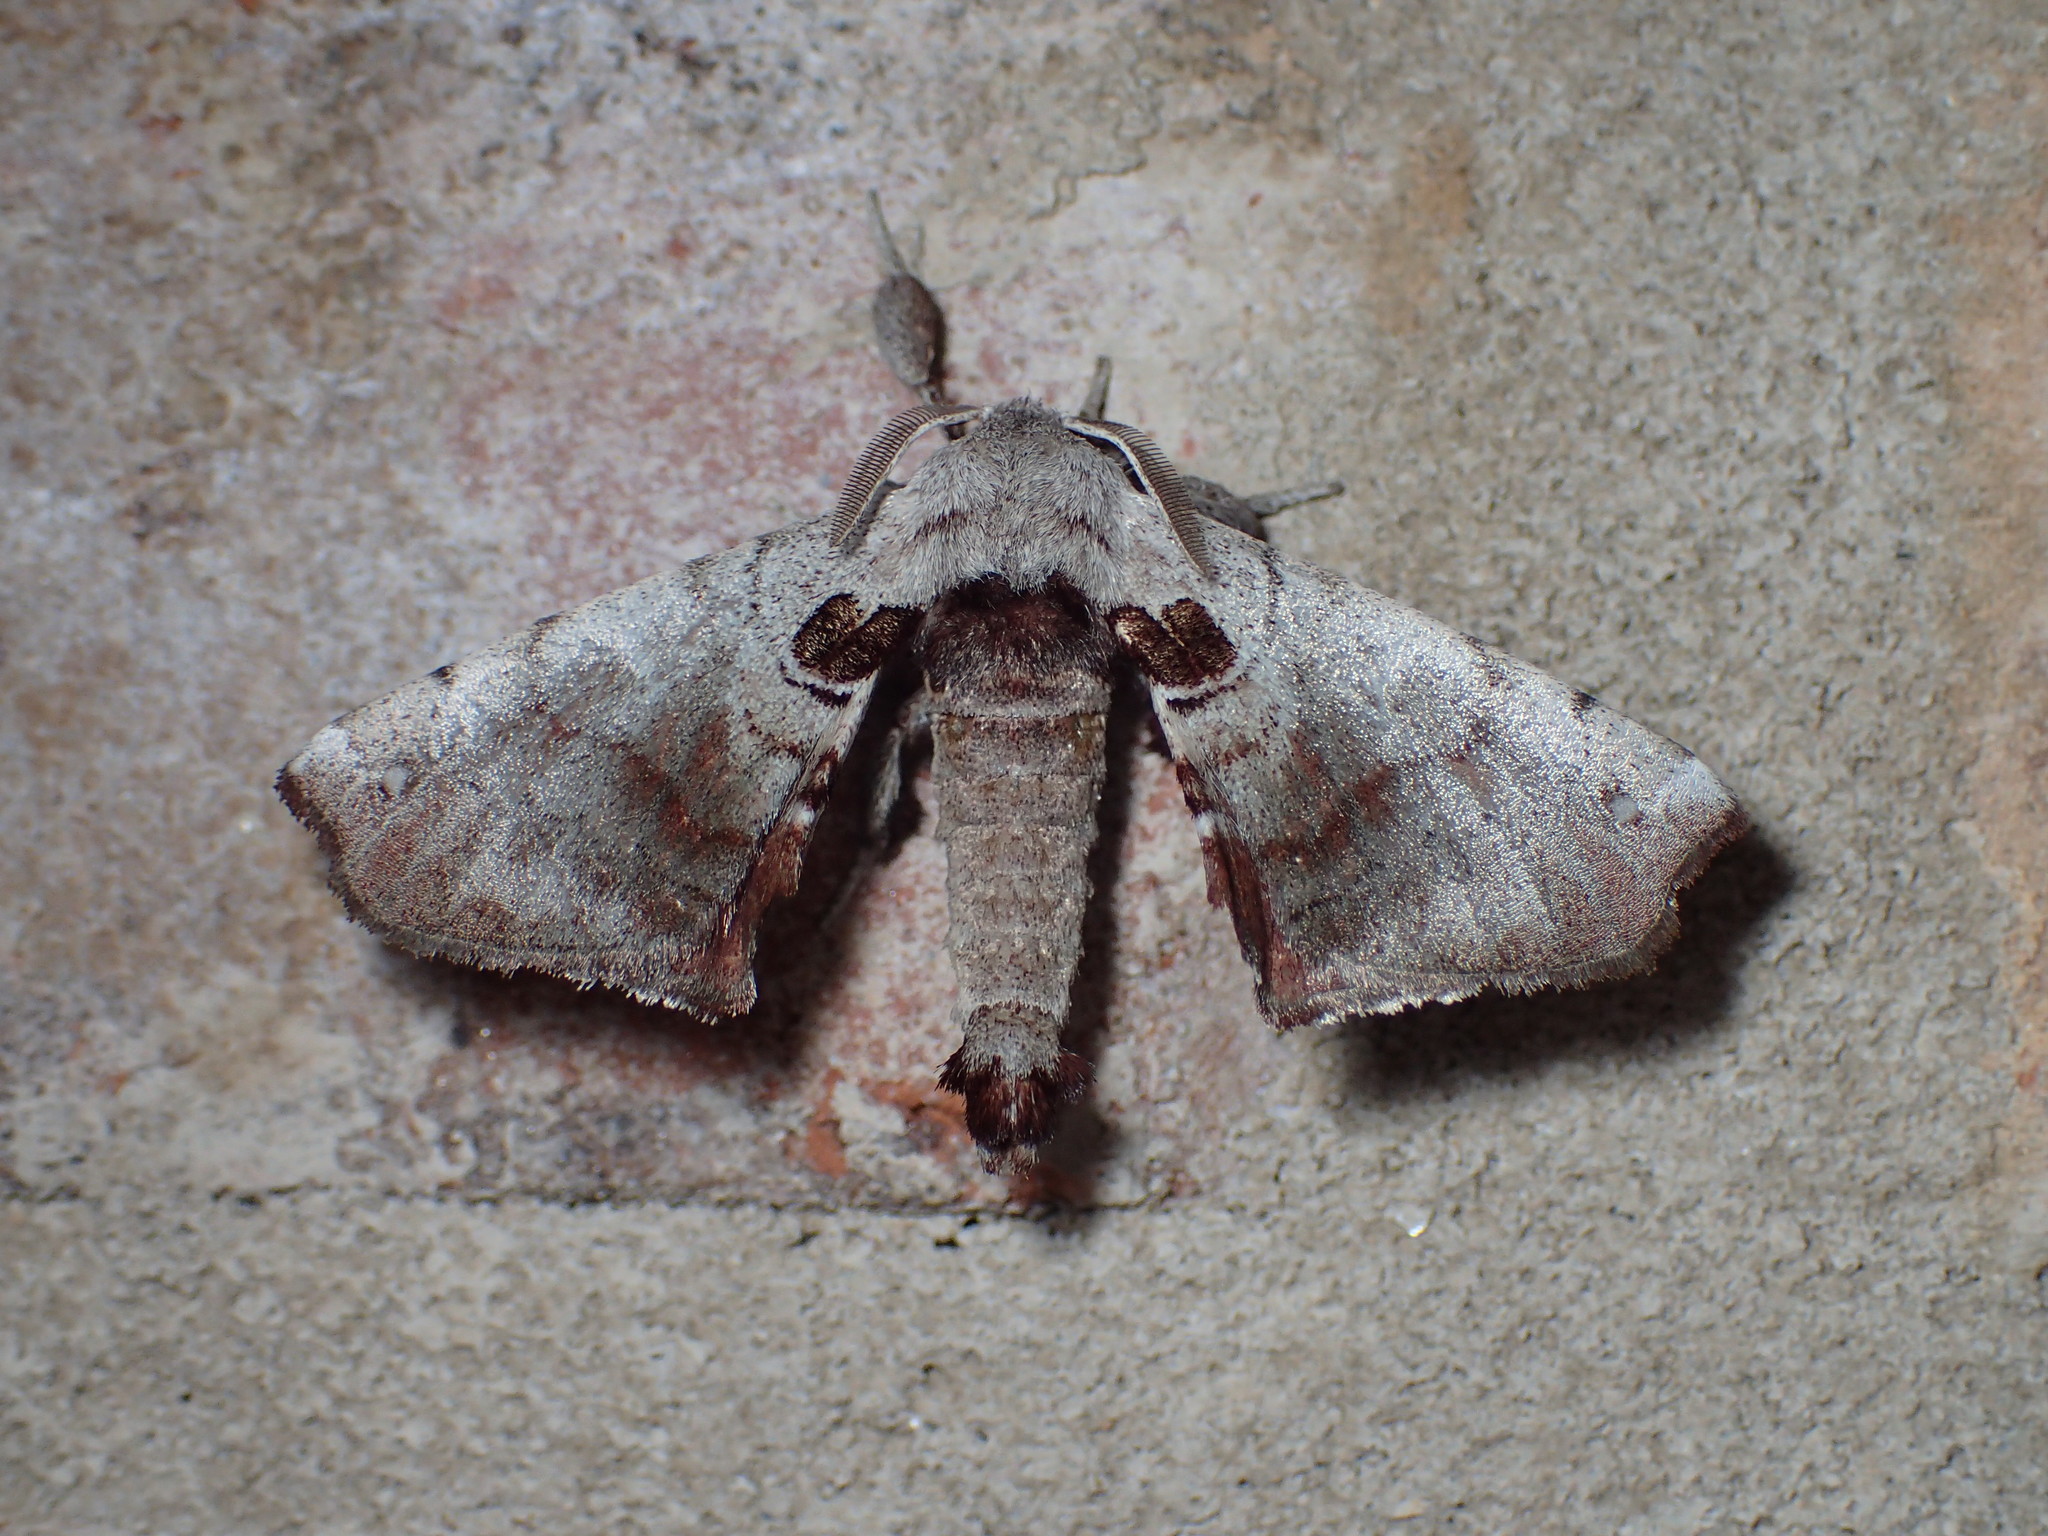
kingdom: Animalia
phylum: Arthropoda
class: Insecta
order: Lepidoptera
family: Apatelodidae
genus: Hygrochroa
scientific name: Hygrochroa Apatelodes torrefacta
